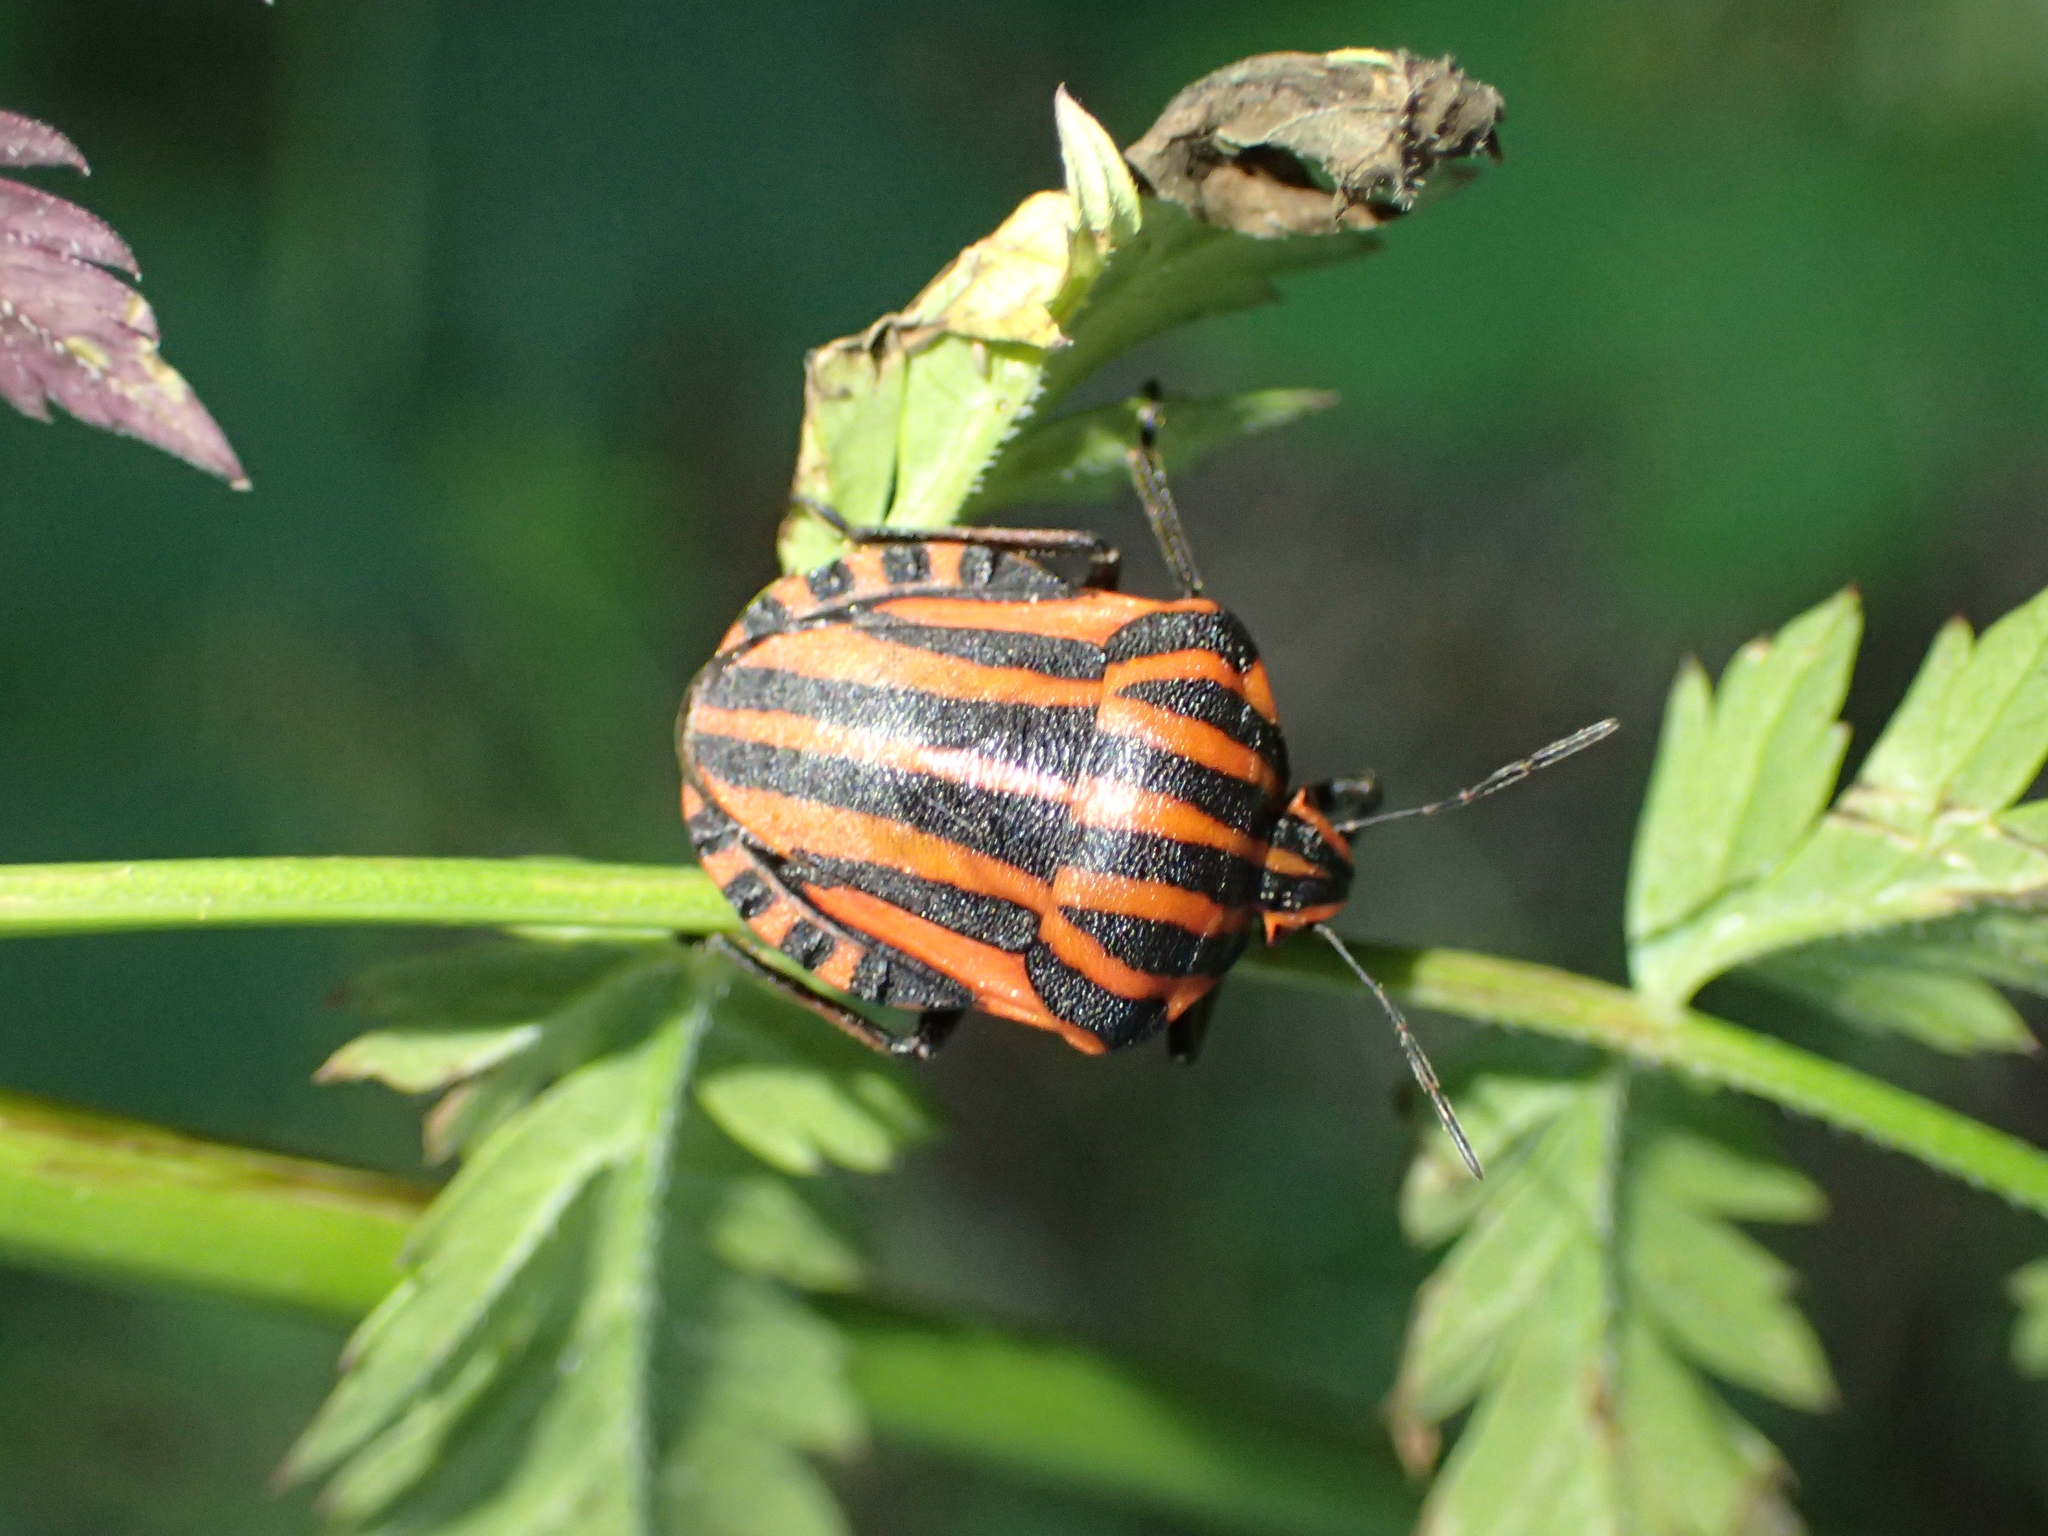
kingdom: Animalia
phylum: Arthropoda
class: Insecta
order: Hemiptera
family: Pentatomidae
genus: Graphosoma
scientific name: Graphosoma italicum
